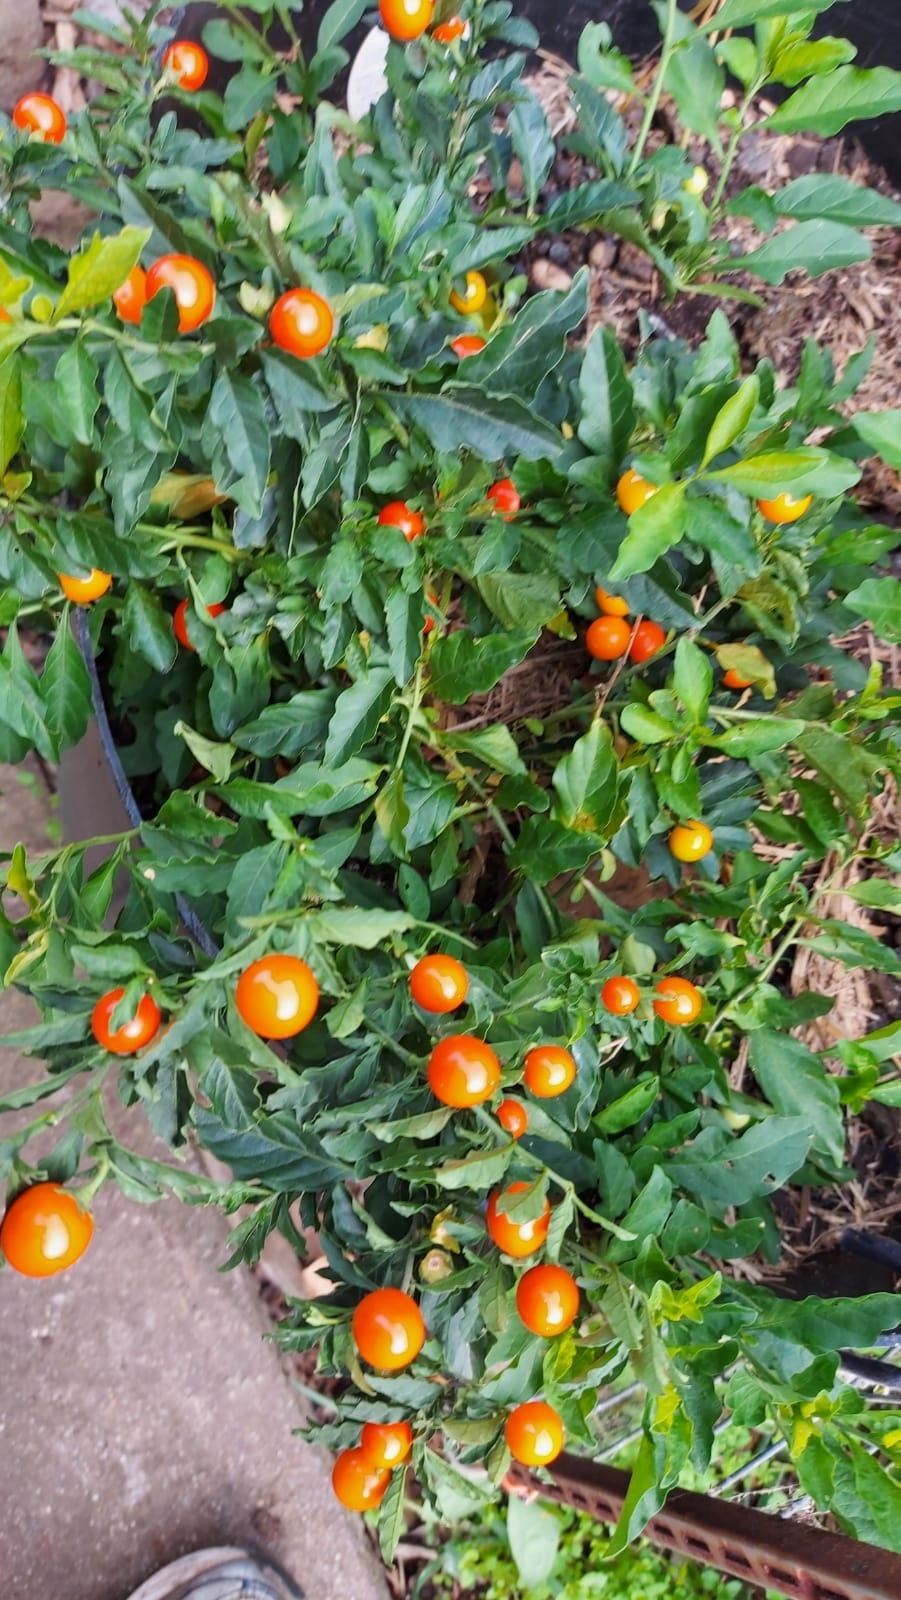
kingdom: Plantae
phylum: Tracheophyta
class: Magnoliopsida
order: Solanales
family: Solanaceae
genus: Solanum
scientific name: Solanum pseudocapsicum
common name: Jerusalem cherry
